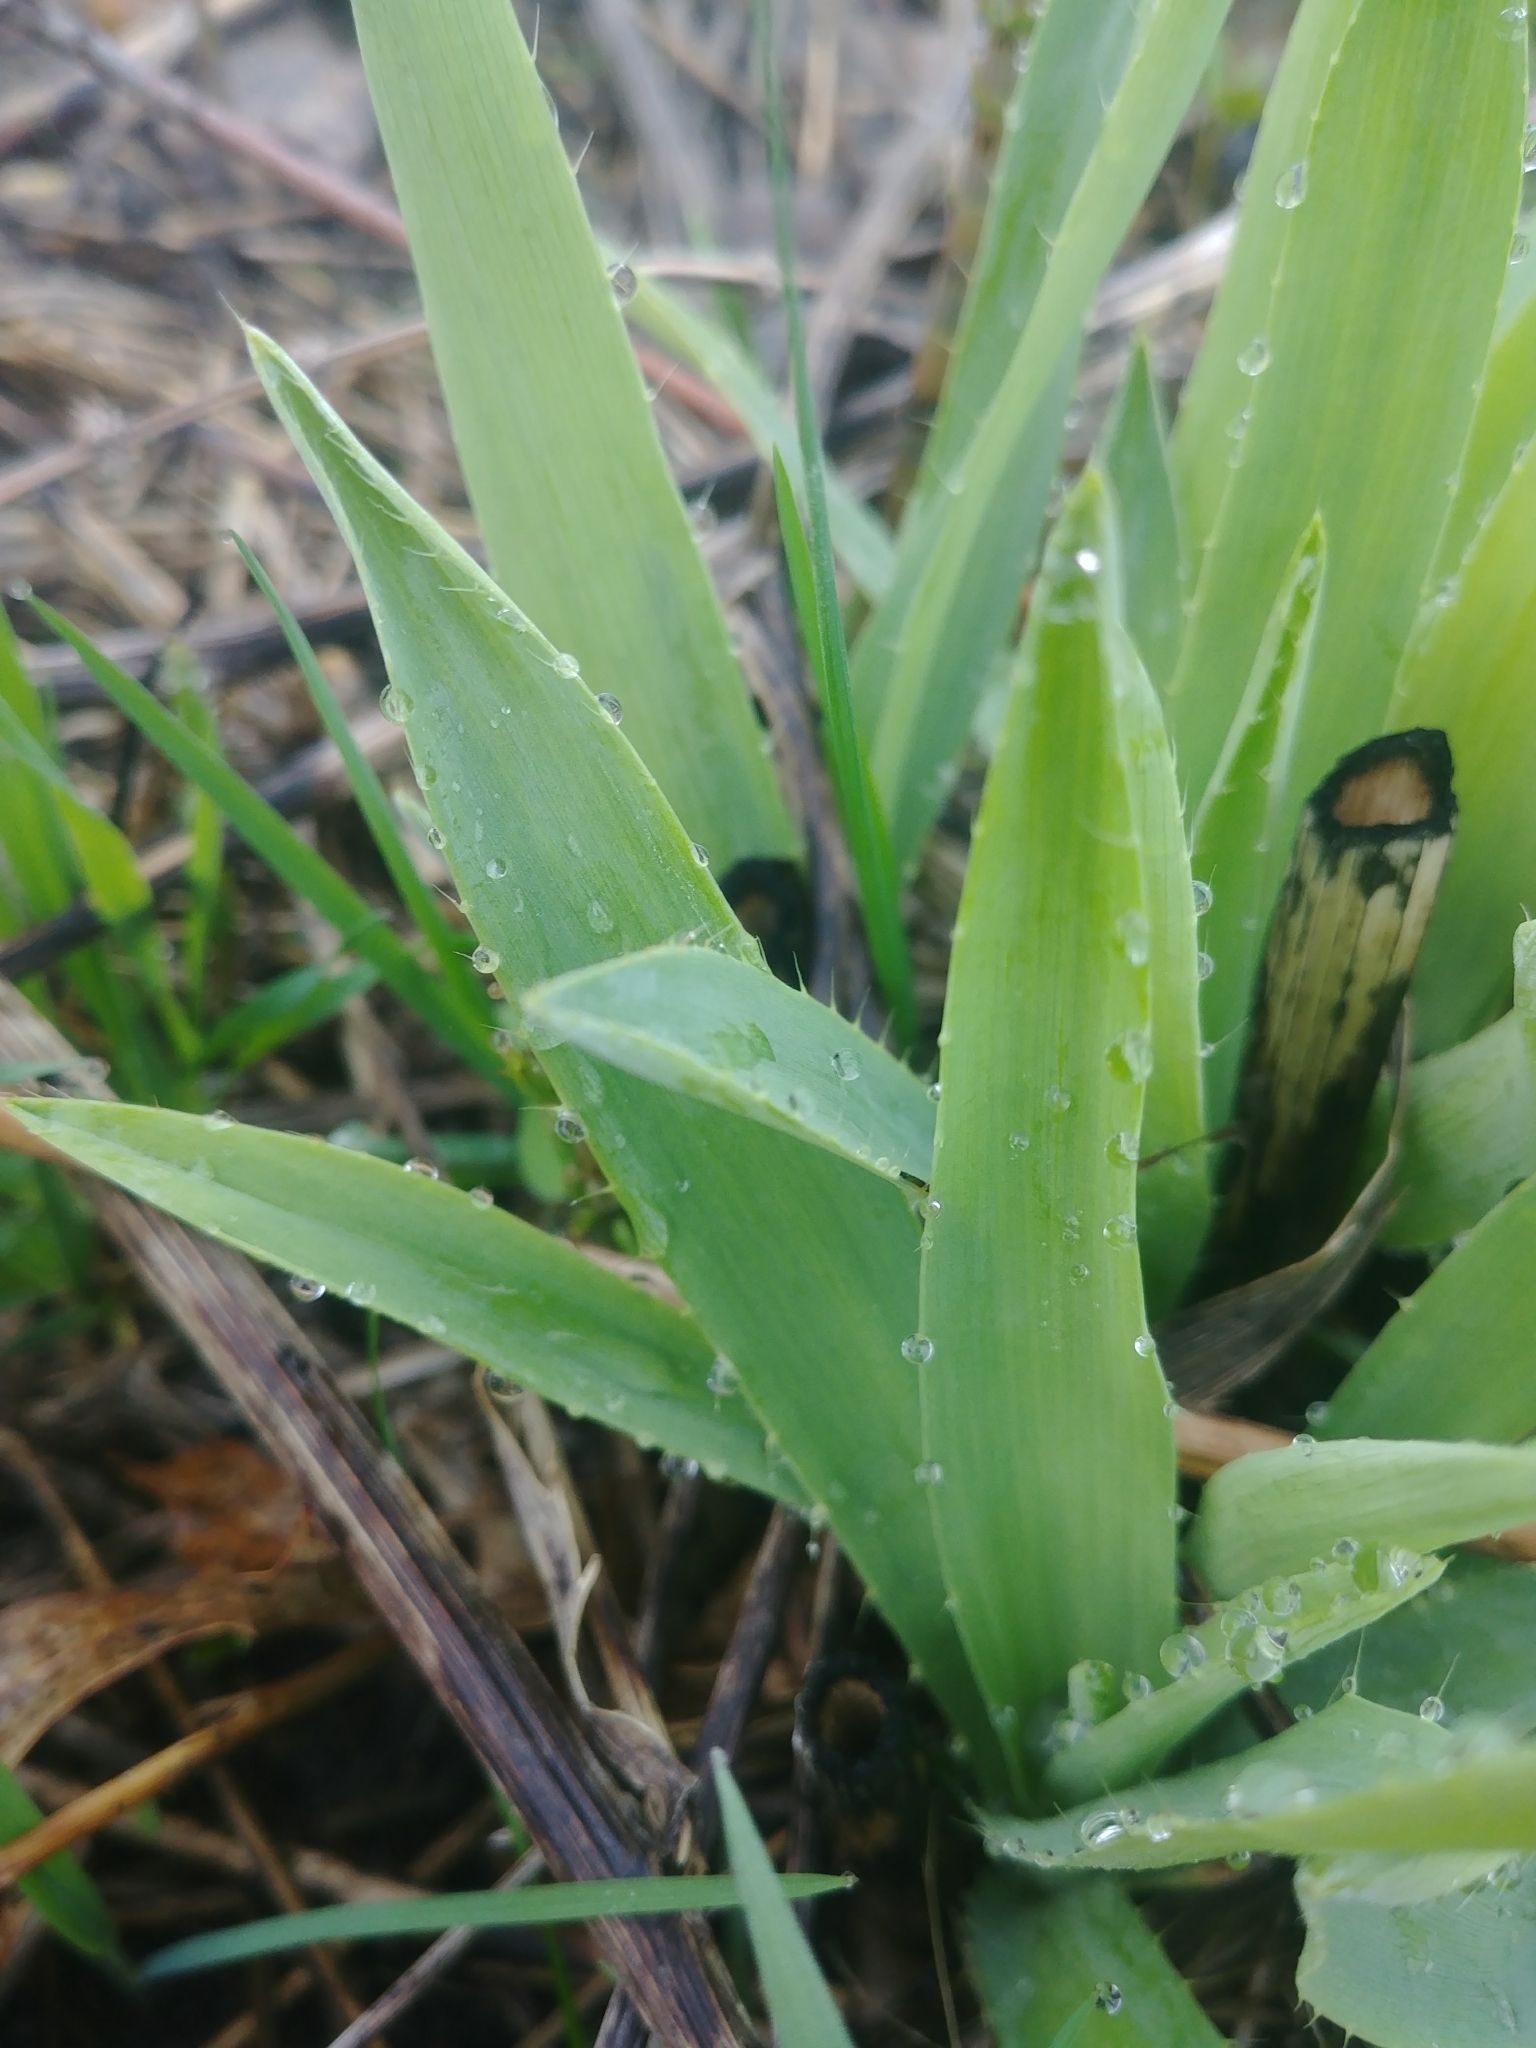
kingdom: Plantae
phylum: Tracheophyta
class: Magnoliopsida
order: Apiales
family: Apiaceae
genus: Eryngium
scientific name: Eryngium yuccifolium
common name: Button eryngo
